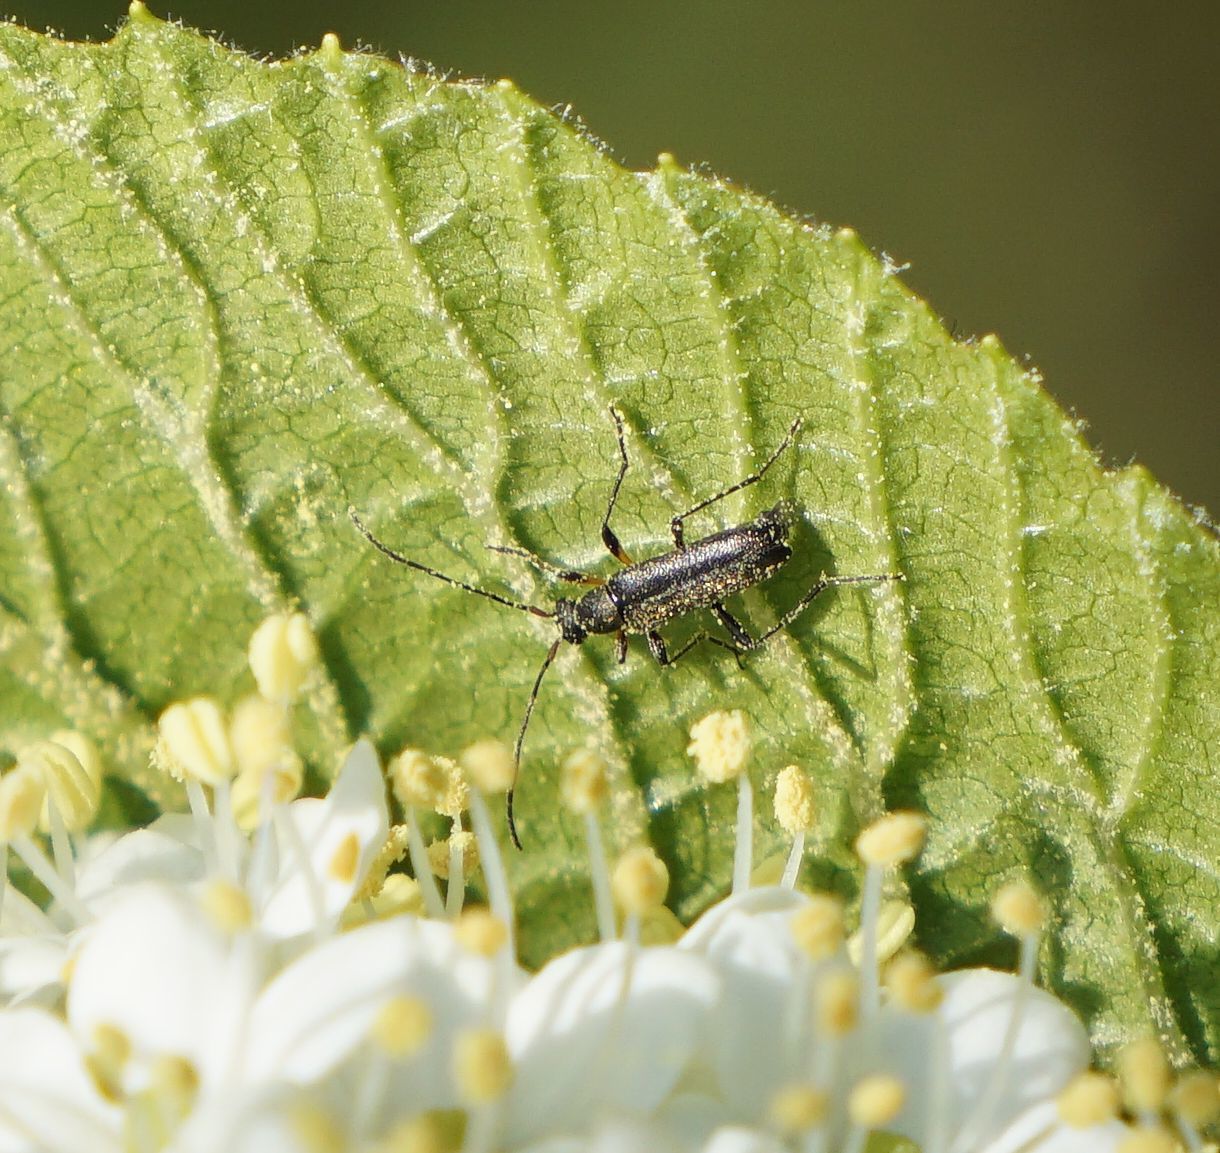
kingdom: Animalia
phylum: Arthropoda
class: Insecta
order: Coleoptera
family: Cerambycidae
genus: Grammoptera
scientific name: Grammoptera ruficornis
